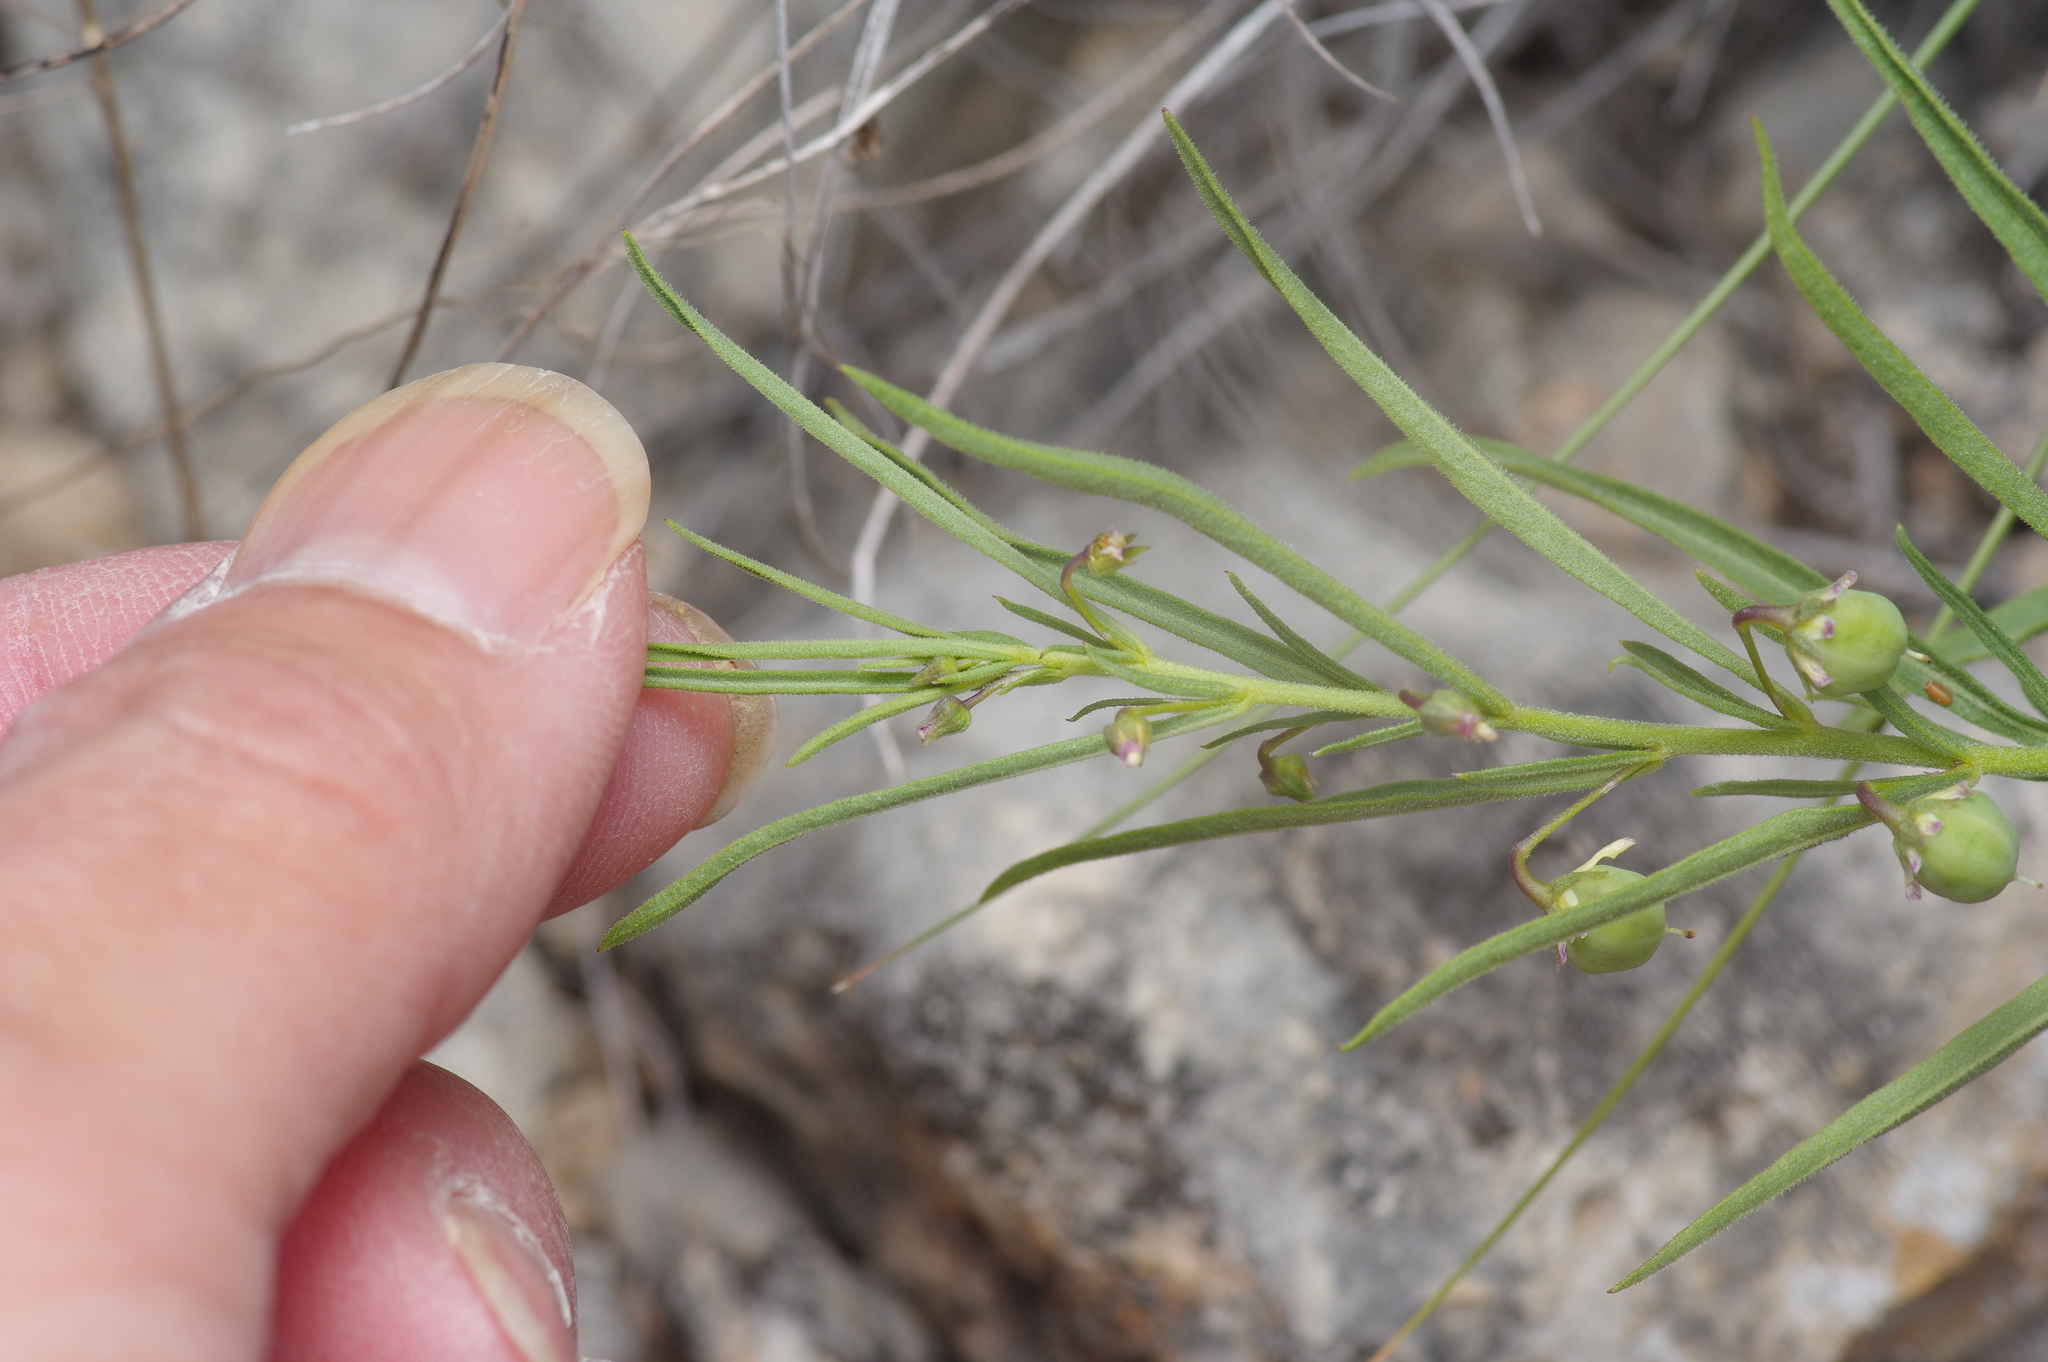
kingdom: Plantae
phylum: Tracheophyta
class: Magnoliopsida
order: Malpighiales
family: Violaceae
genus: Pombalia
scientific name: Pombalia verticillata
